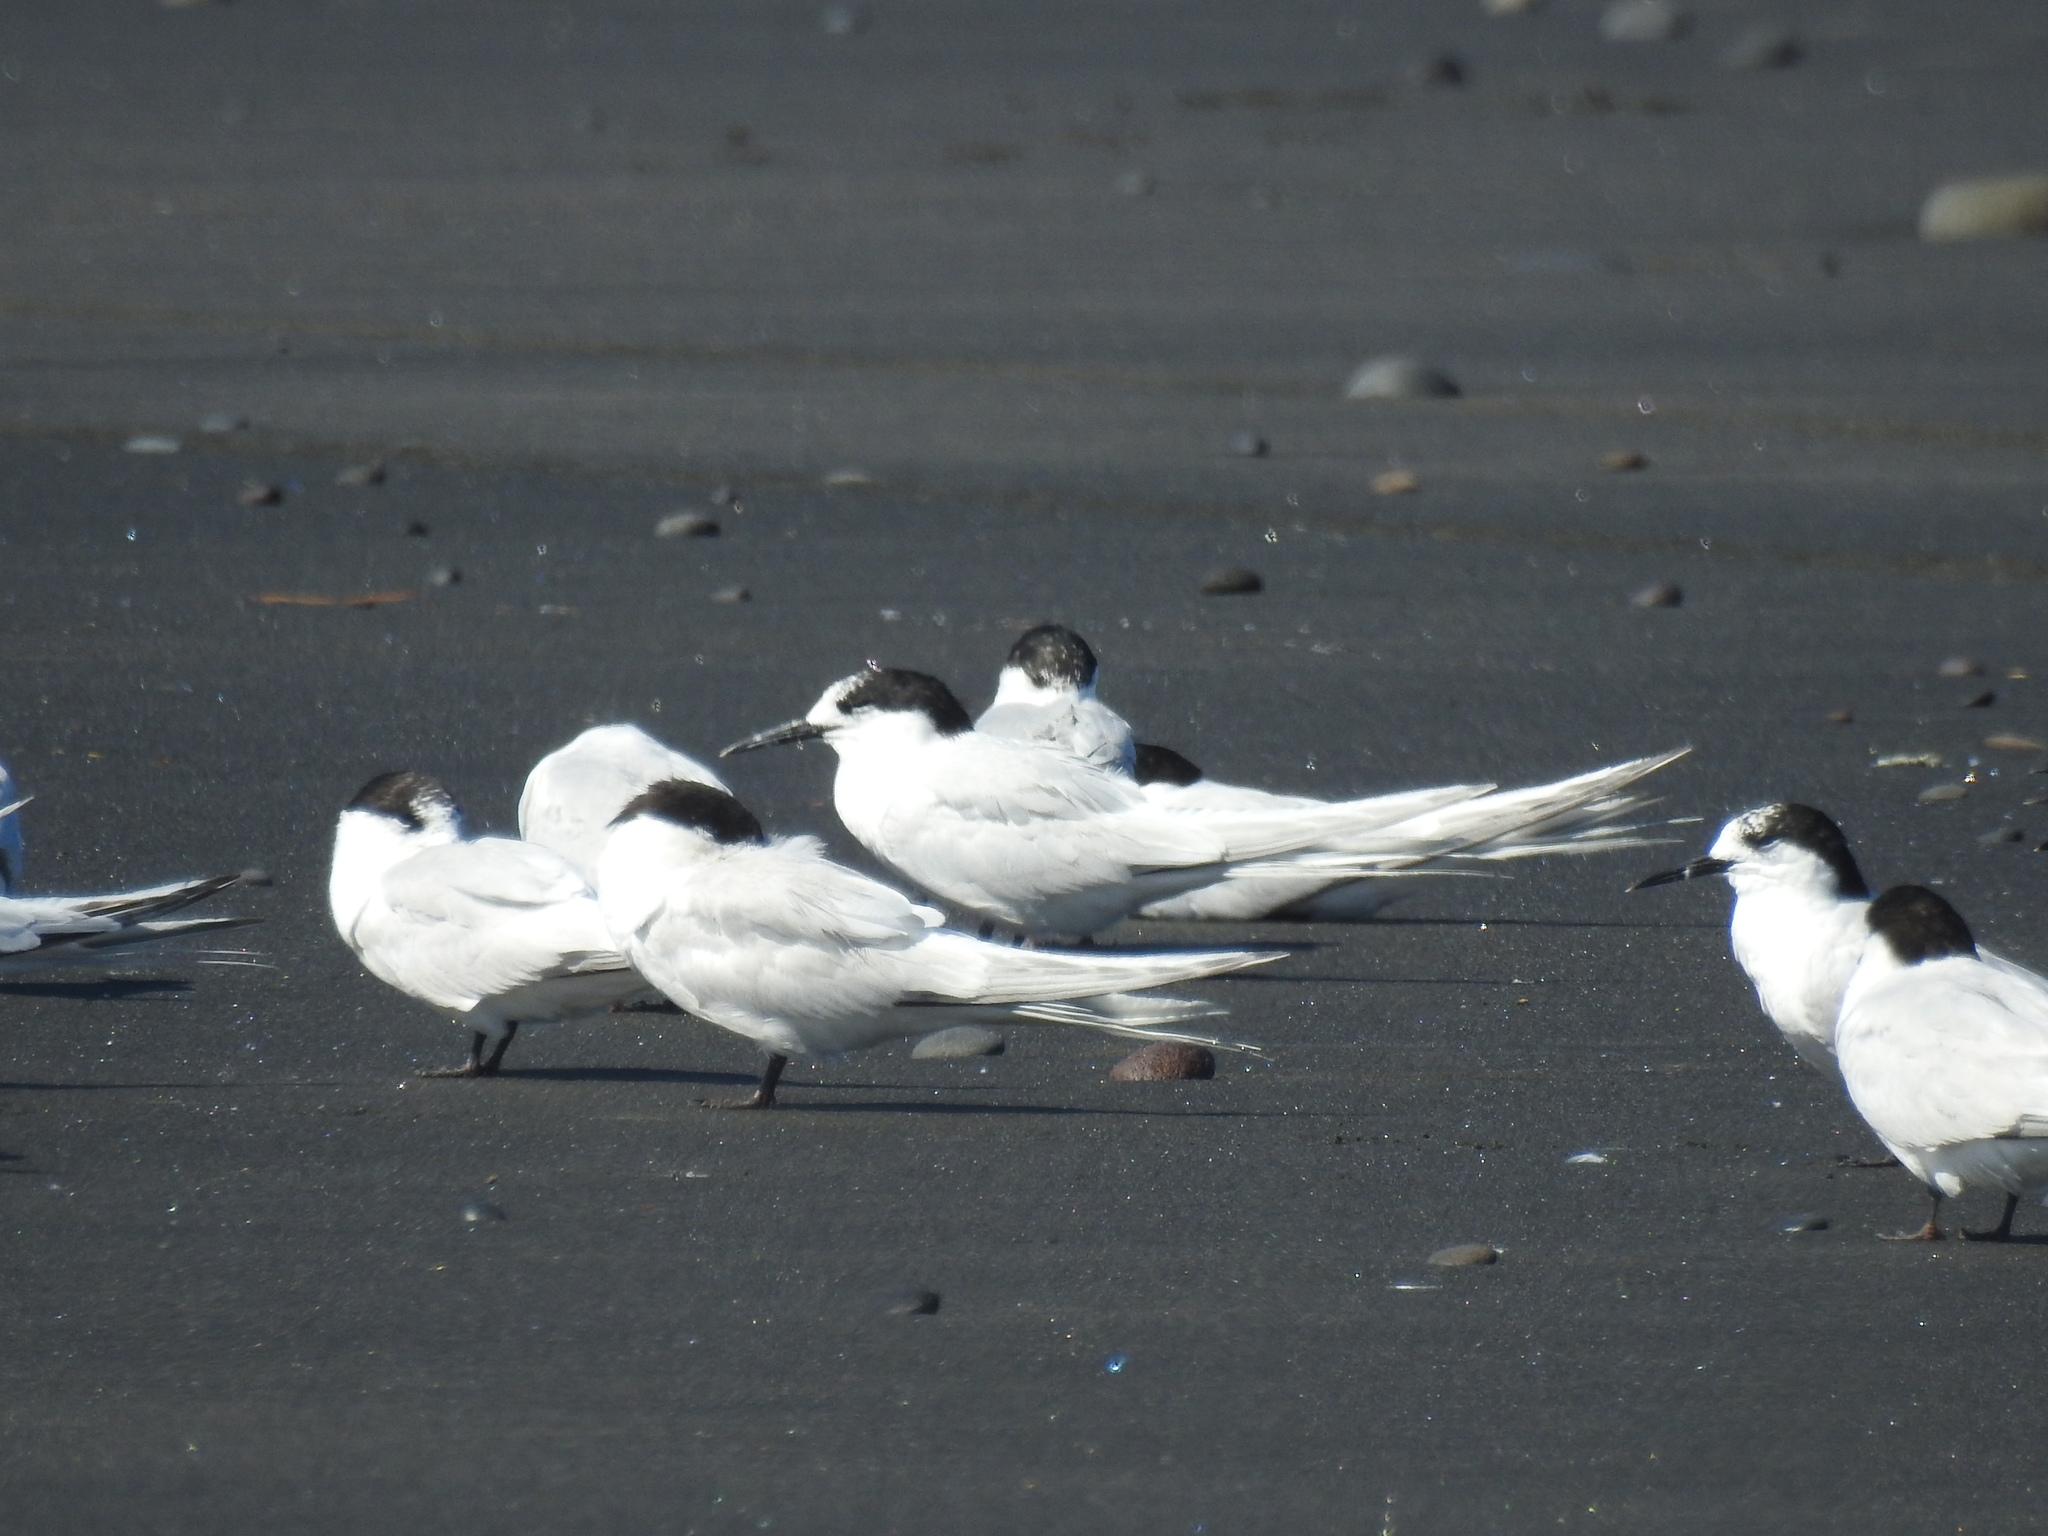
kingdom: Animalia
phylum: Chordata
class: Aves
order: Charadriiformes
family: Laridae
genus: Sterna
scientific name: Sterna striata
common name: White-fronted tern
